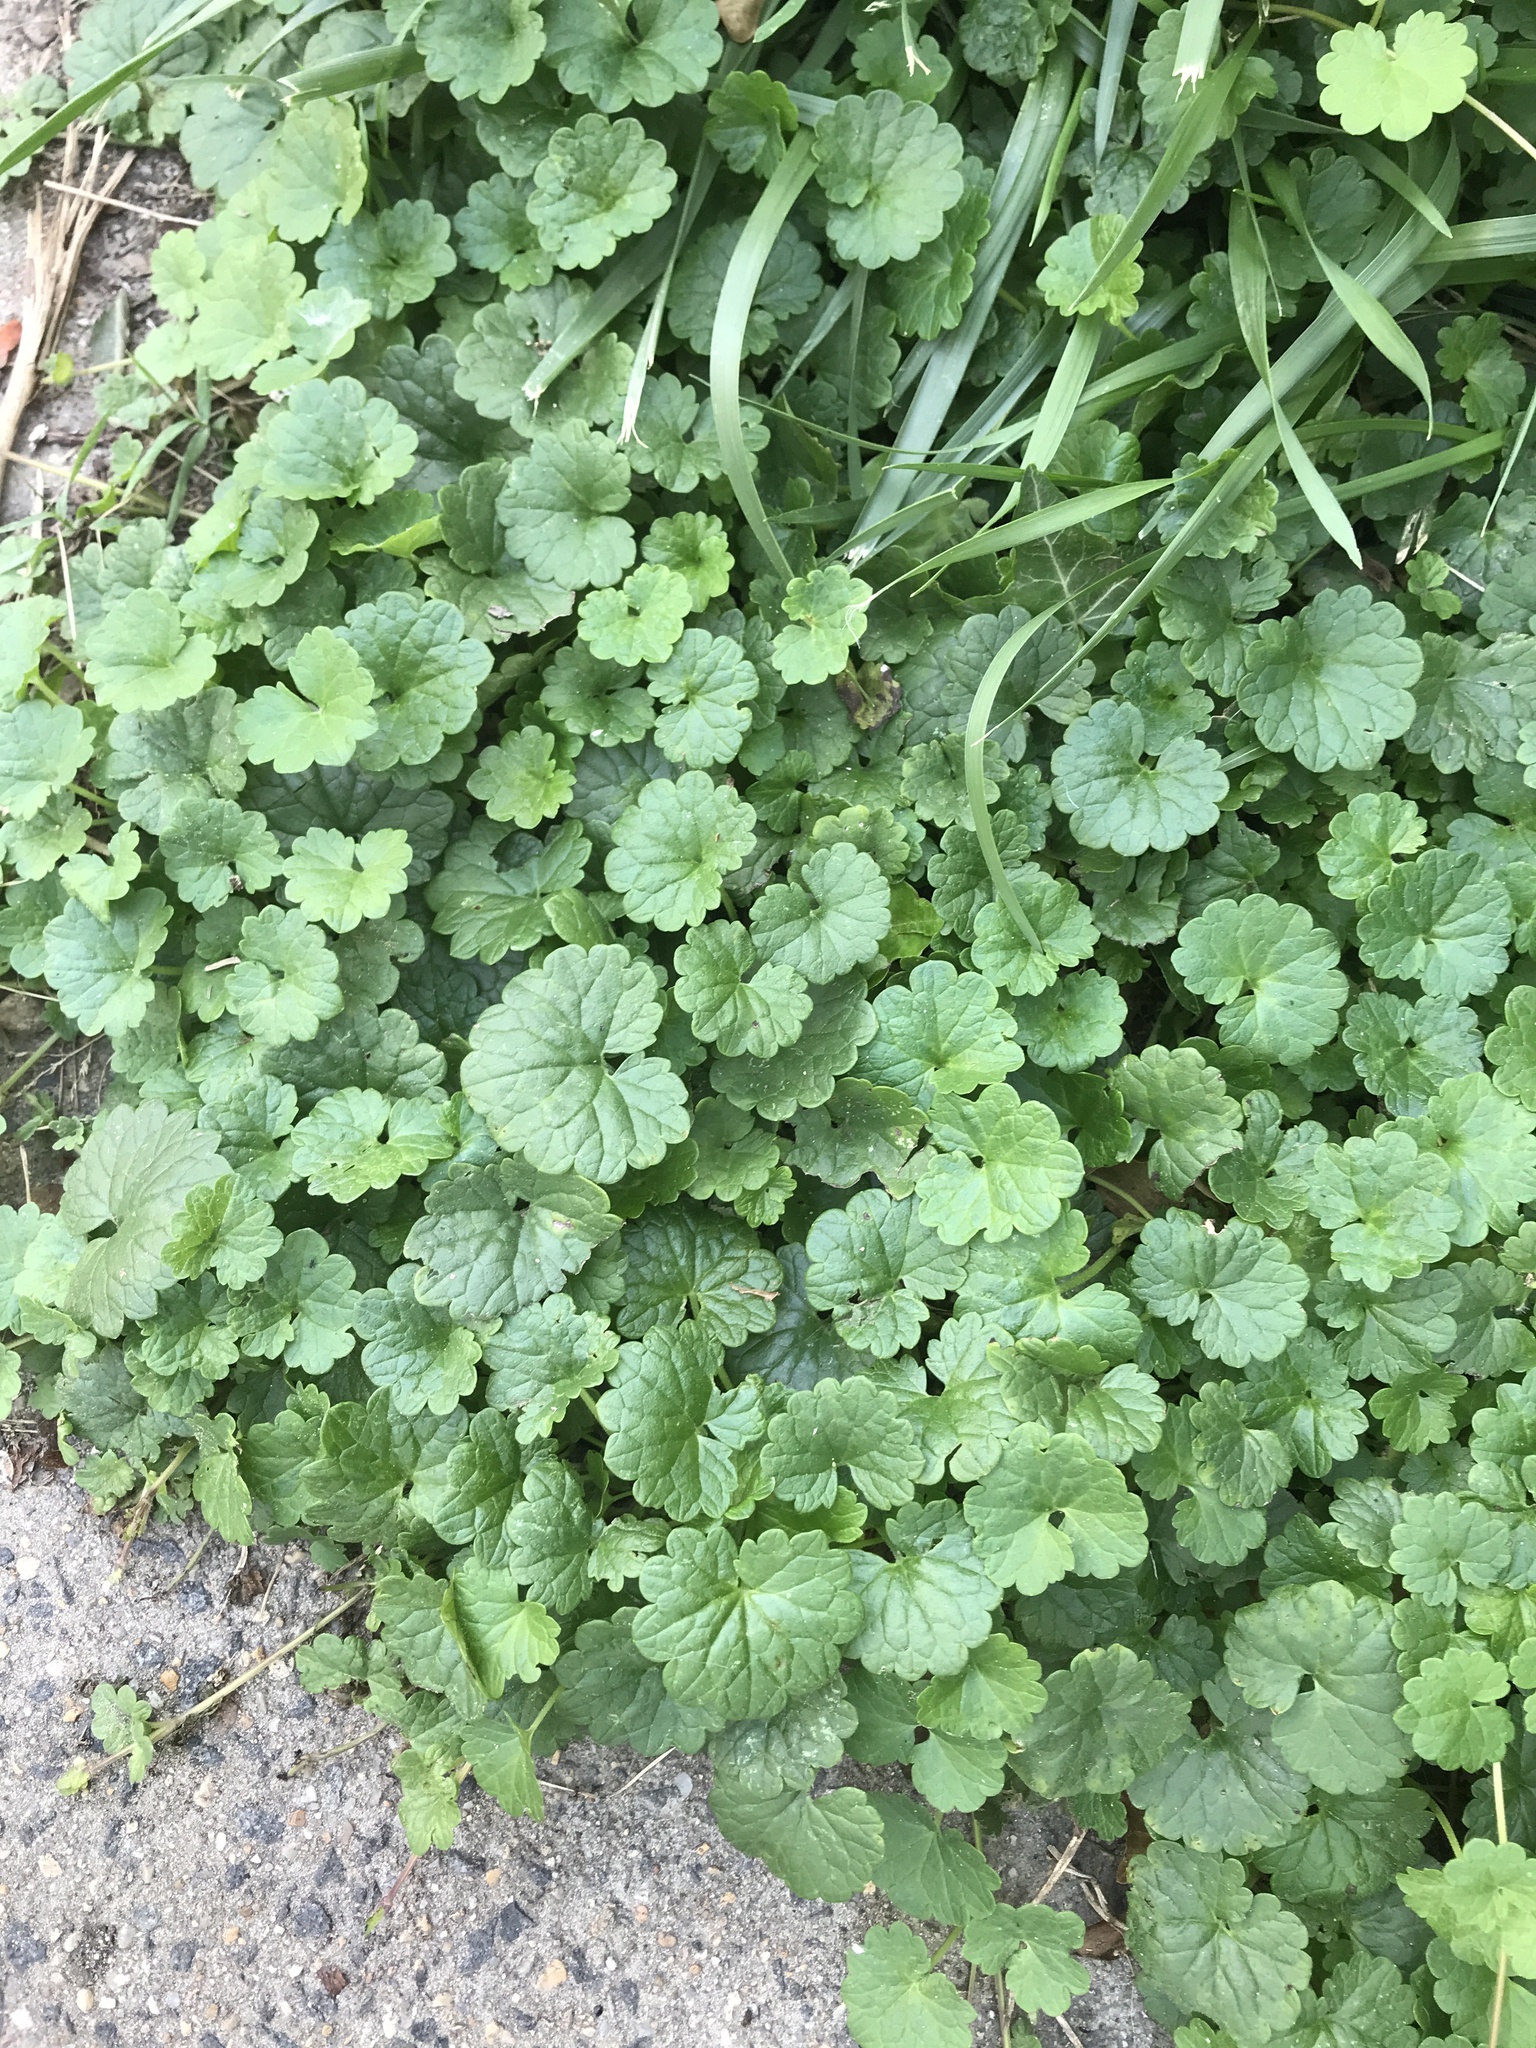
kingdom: Plantae
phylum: Tracheophyta
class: Magnoliopsida
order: Lamiales
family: Lamiaceae
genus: Glechoma
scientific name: Glechoma hederacea
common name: Ground ivy
